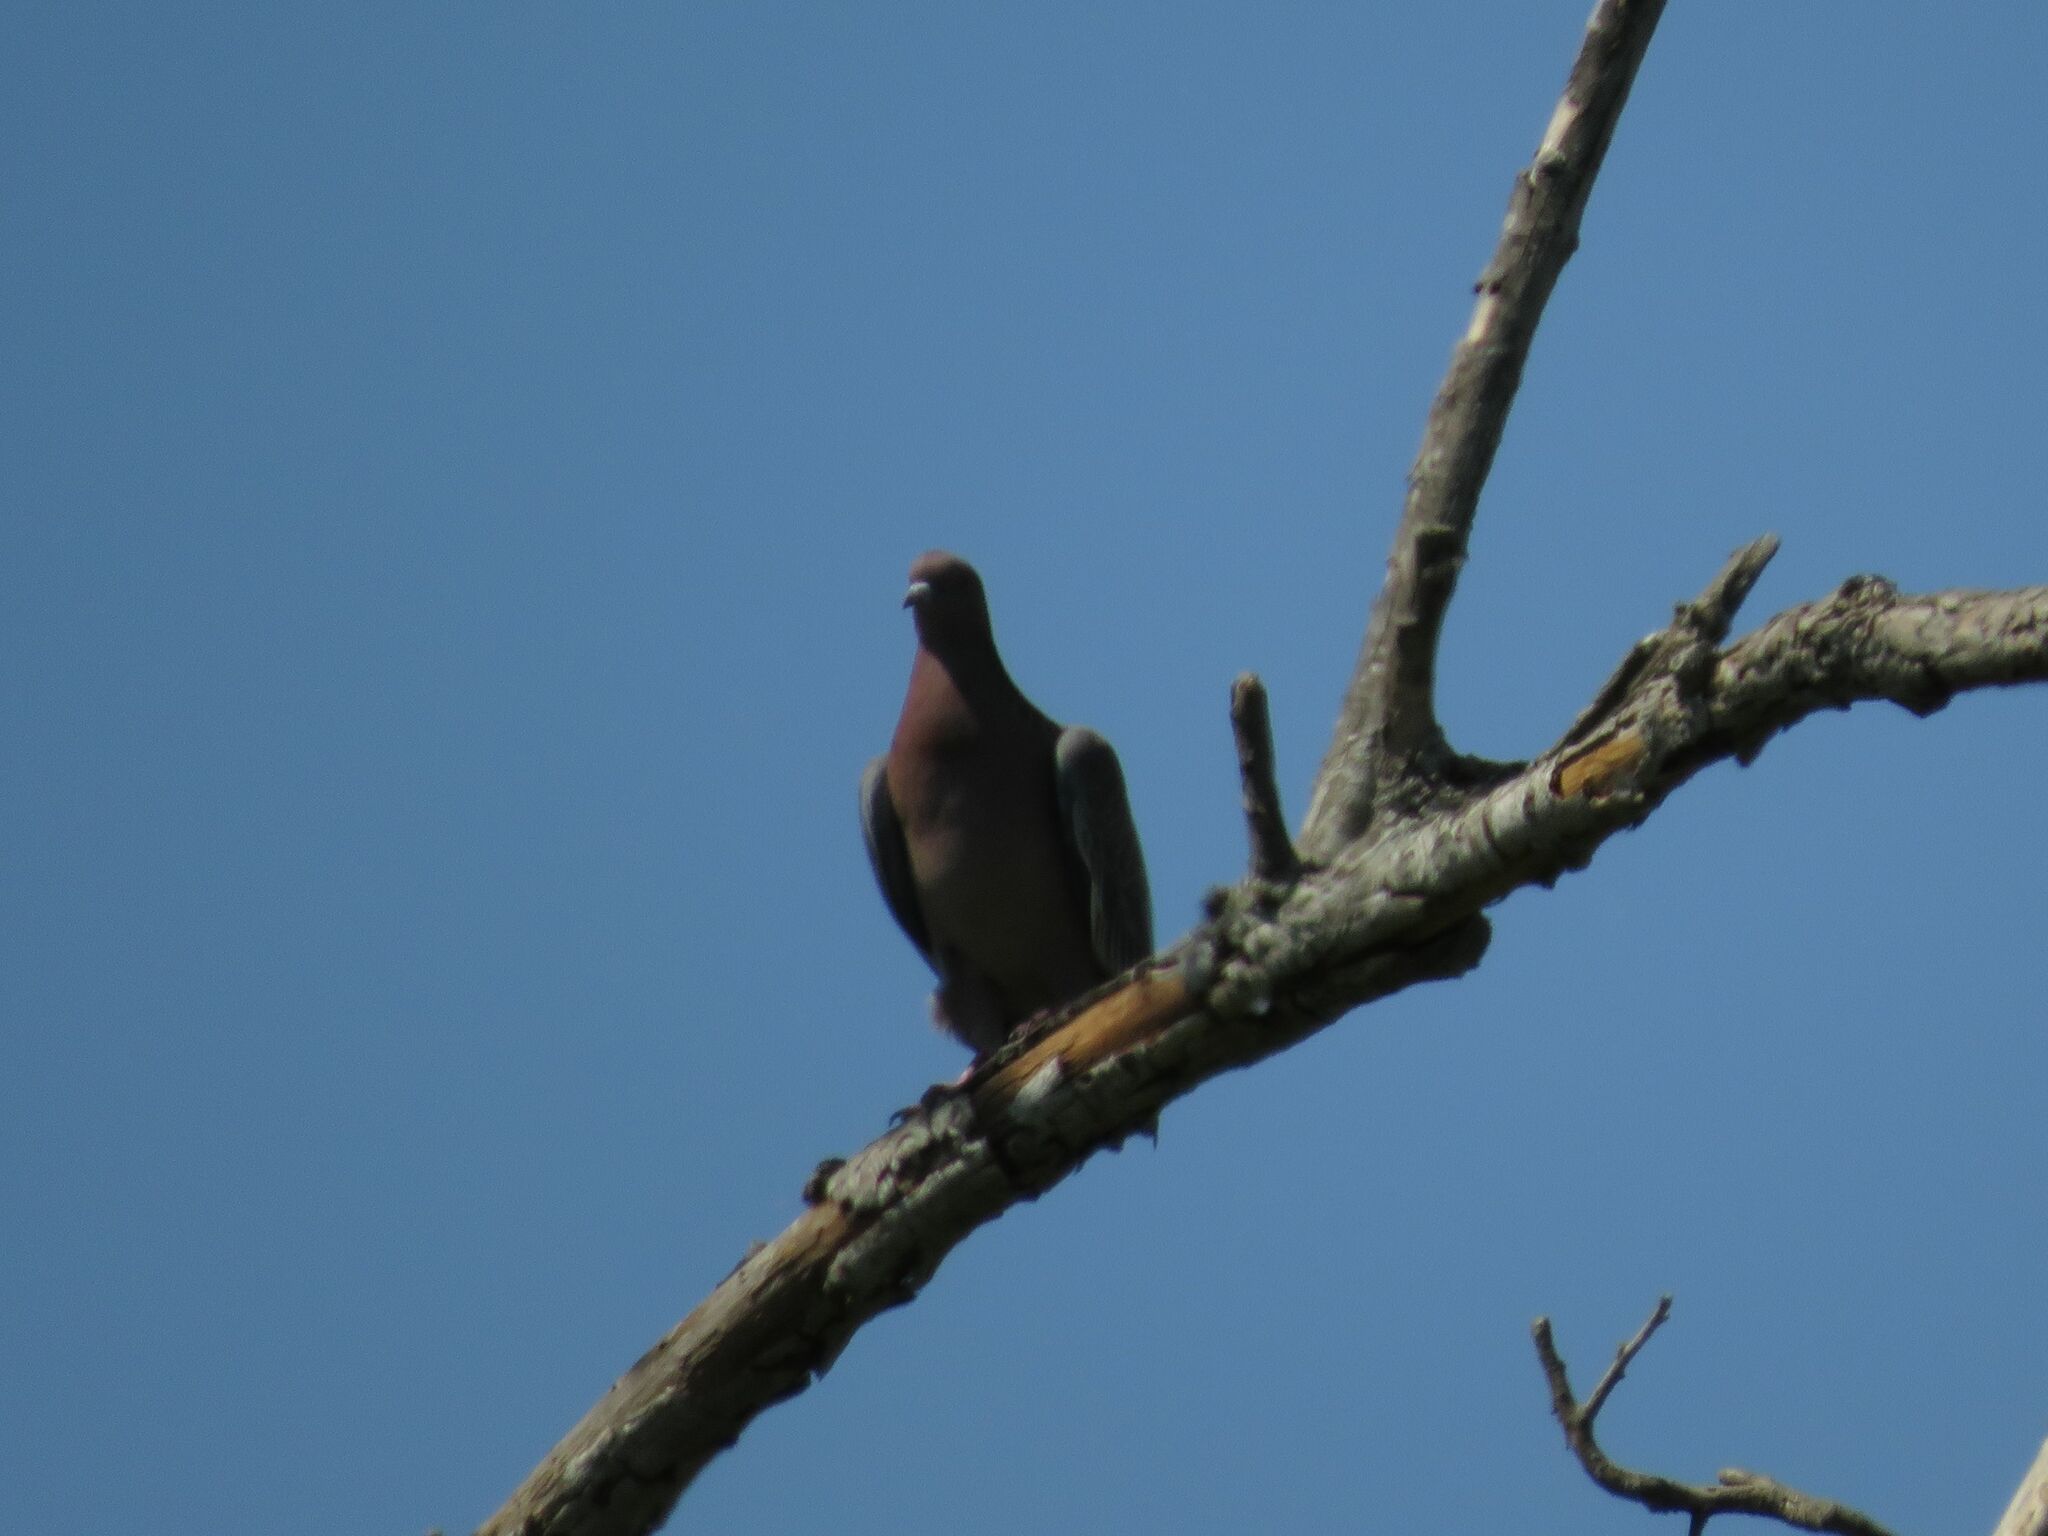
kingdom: Animalia
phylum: Chordata
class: Aves
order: Columbiformes
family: Columbidae
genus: Patagioenas
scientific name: Patagioenas picazuro
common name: Picazuro pigeon
